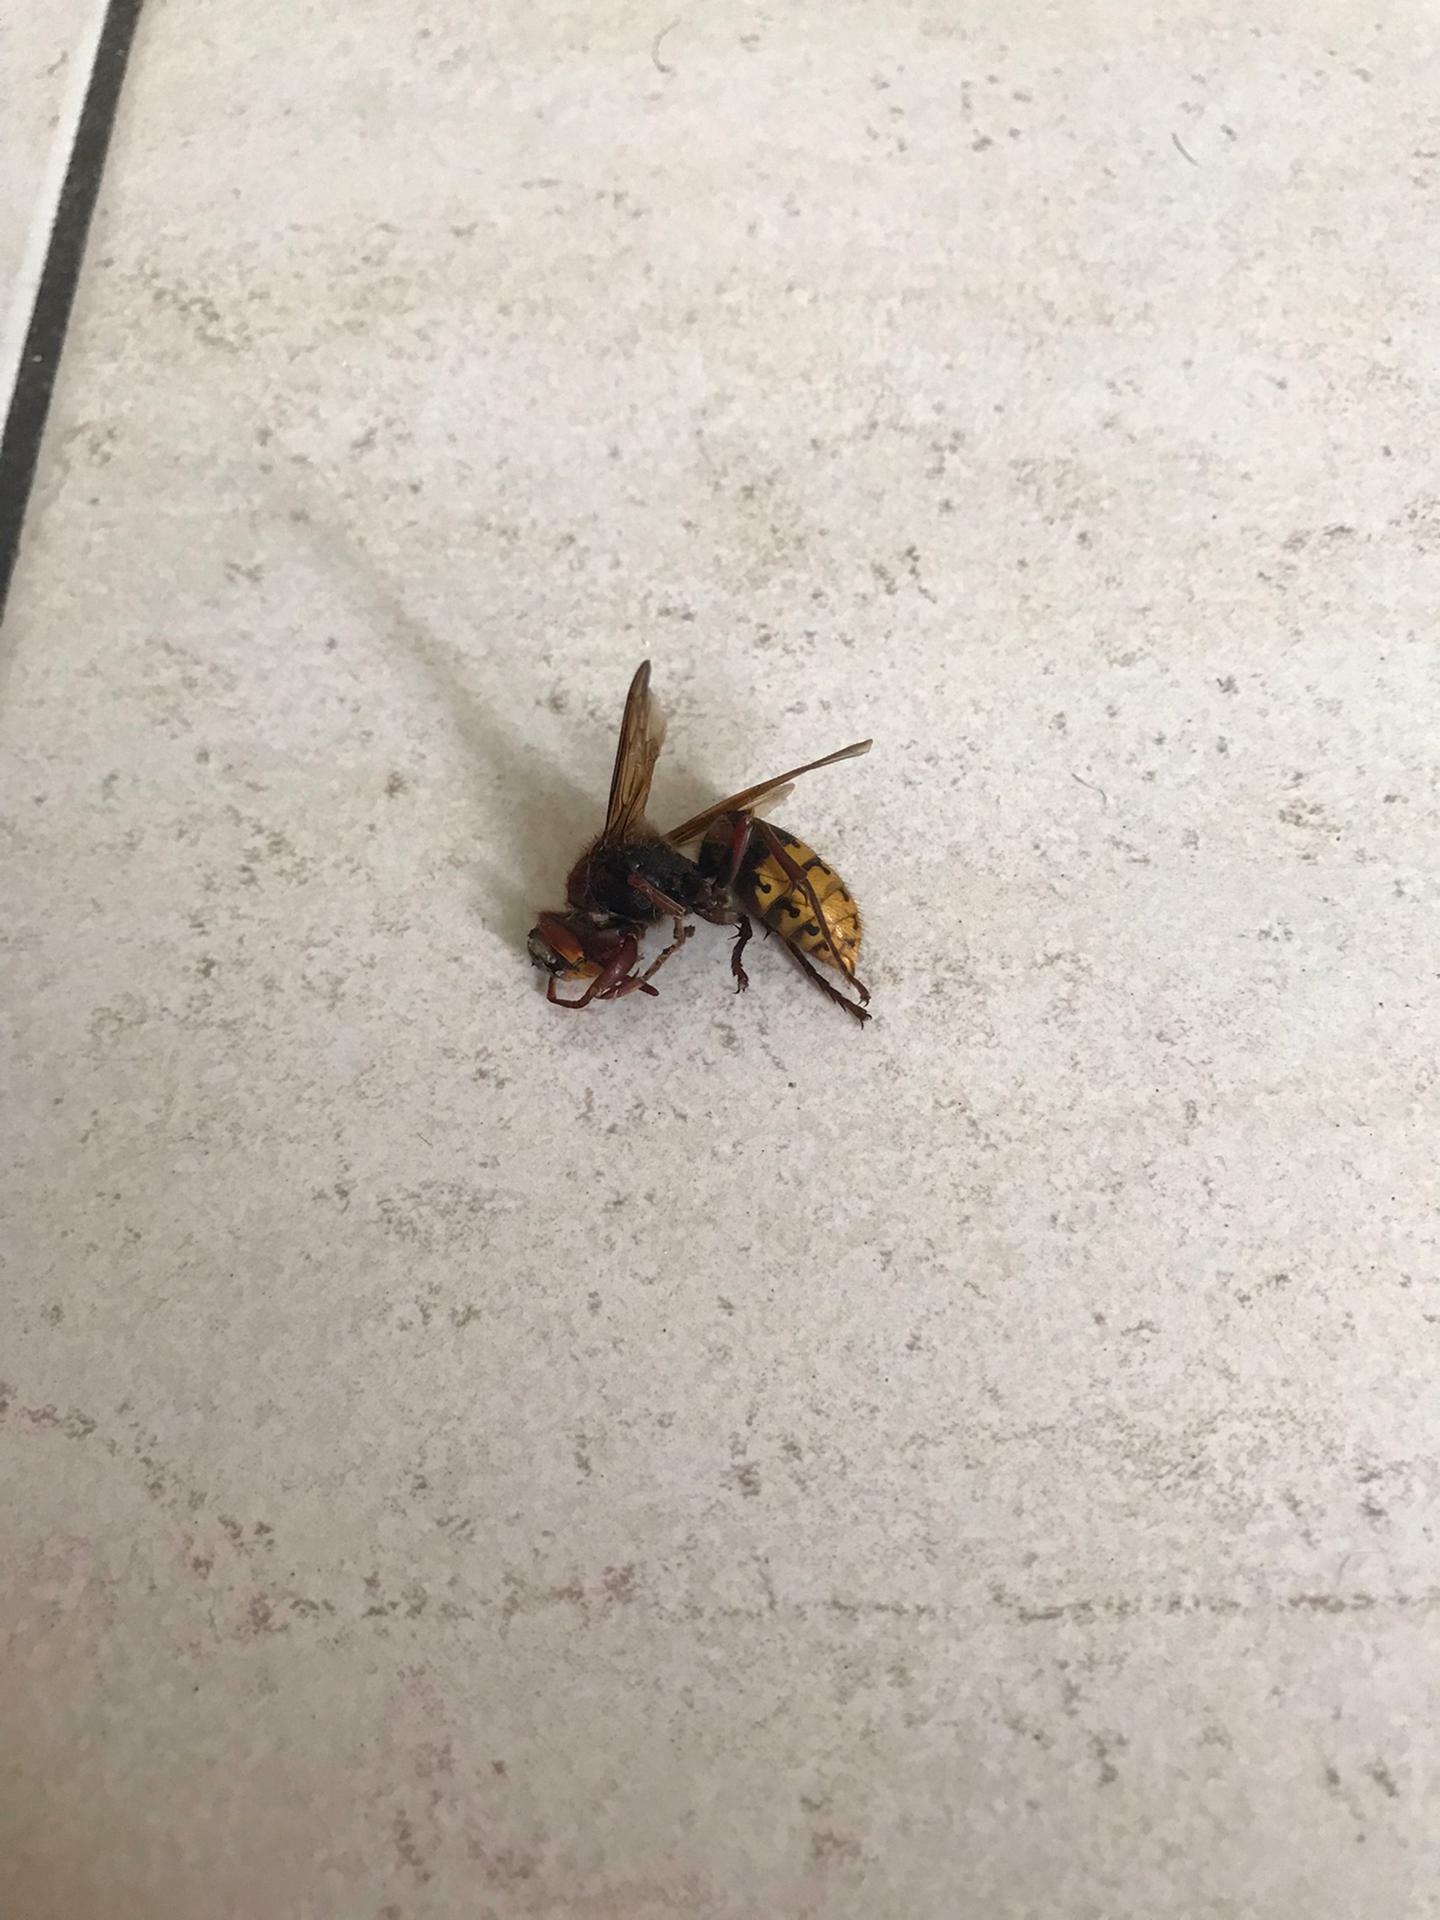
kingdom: Animalia
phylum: Arthropoda
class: Insecta
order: Hymenoptera
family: Vespidae
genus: Vespa
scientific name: Vespa crabro
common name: Hornet
